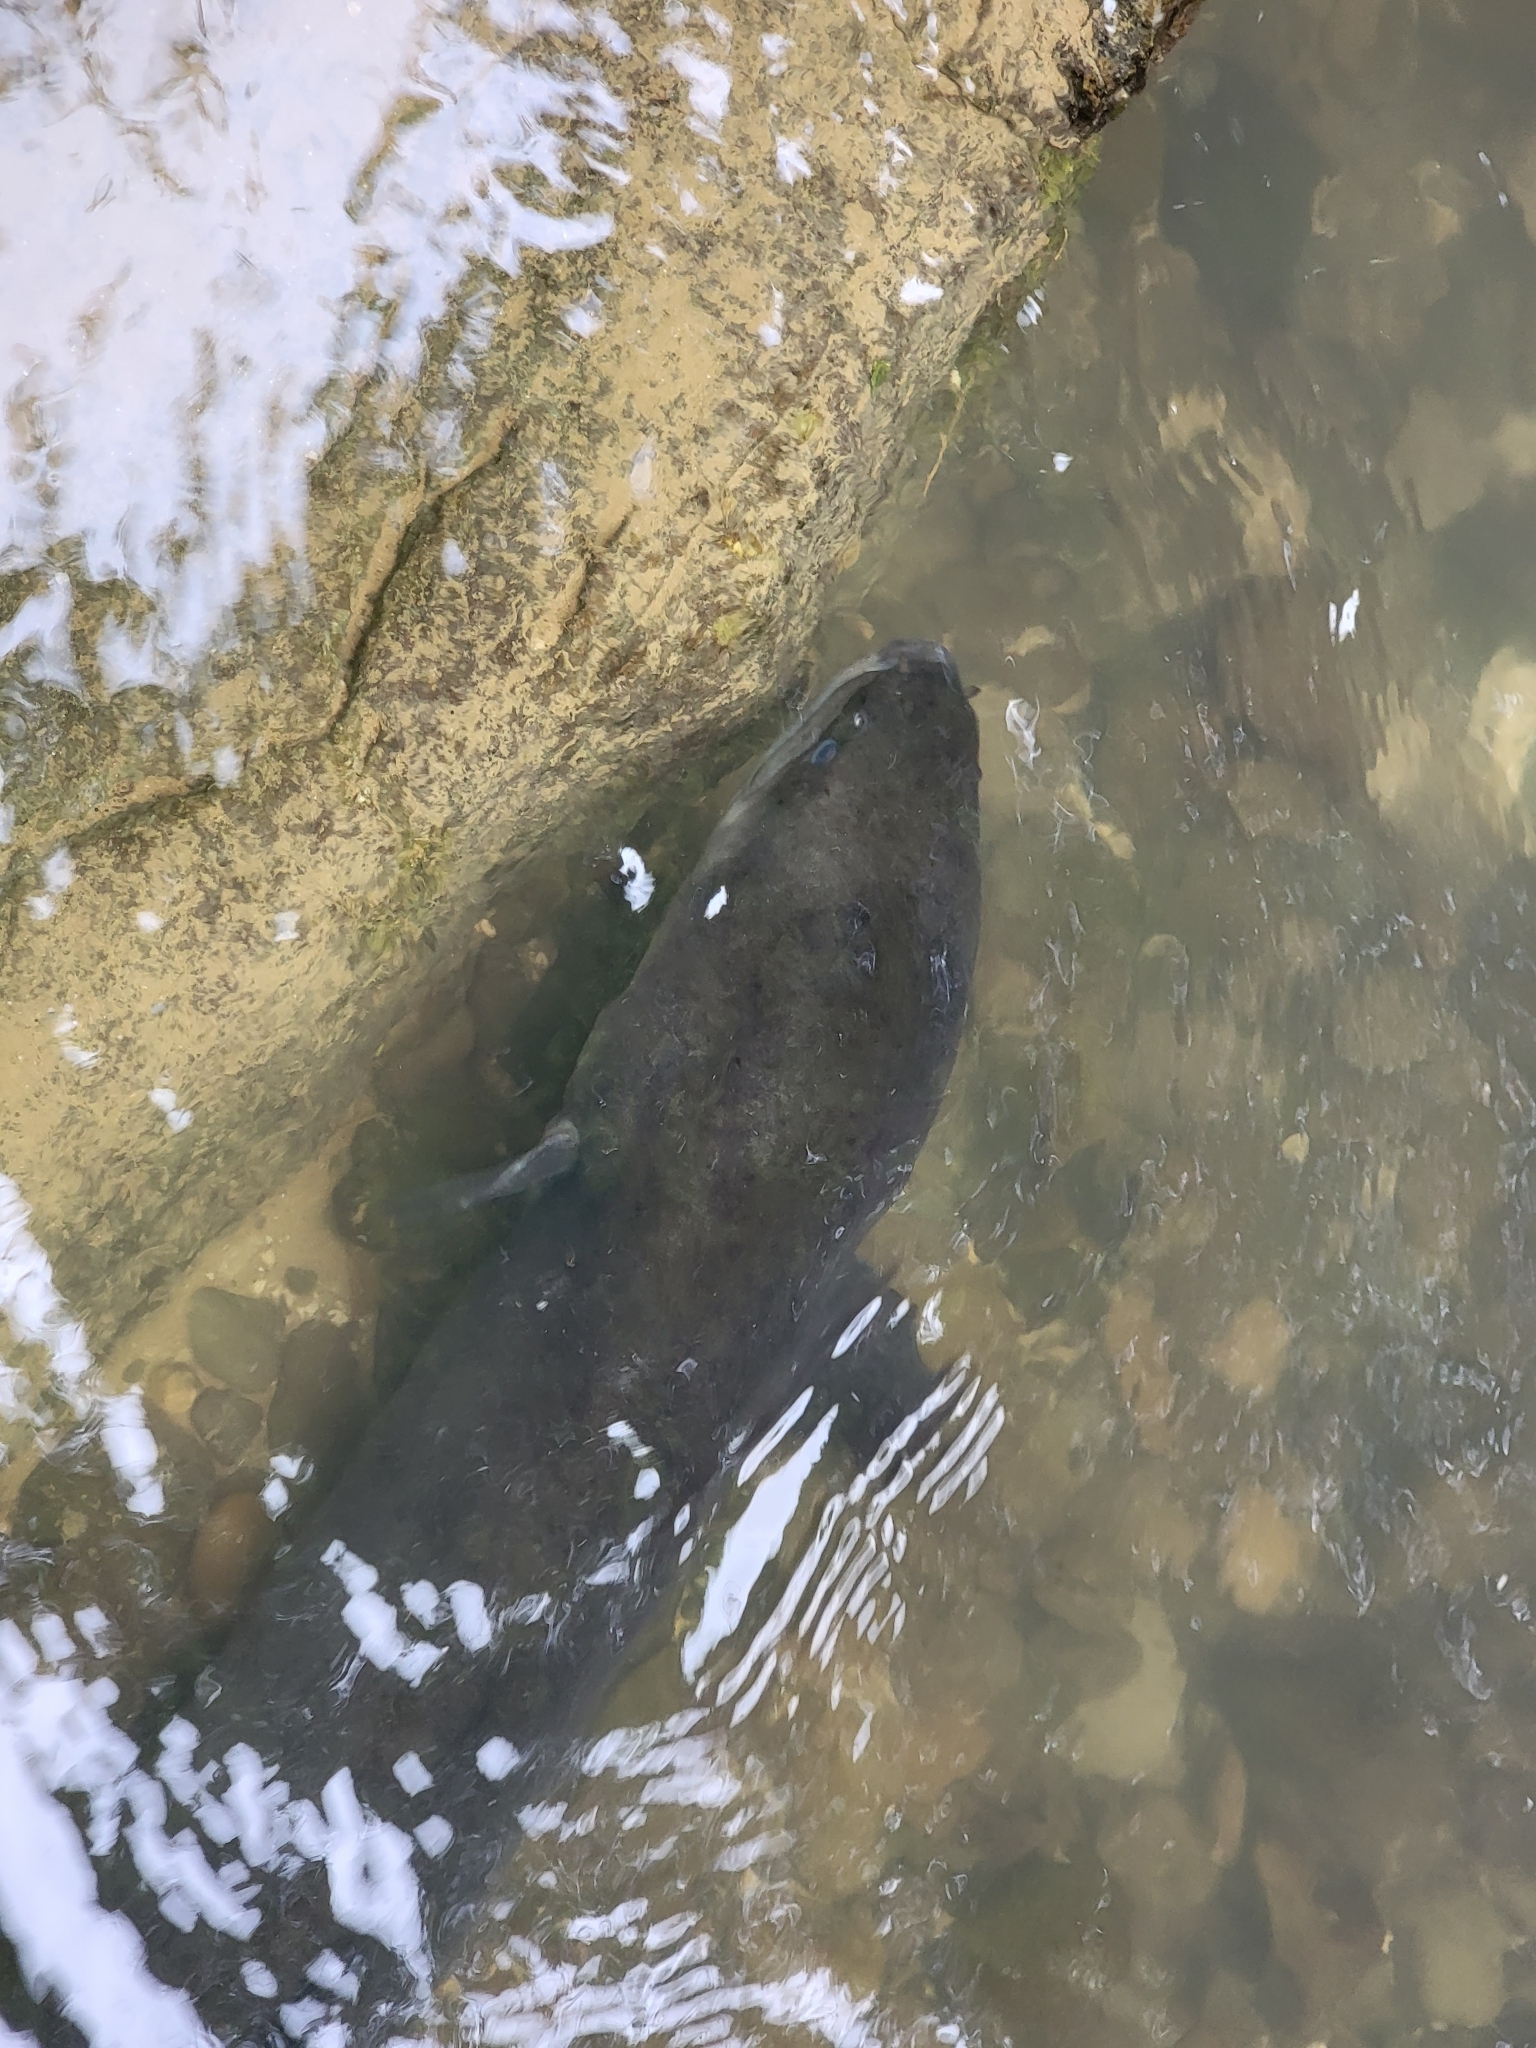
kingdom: Animalia
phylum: Chordata
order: Anguilliformes
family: Anguillidae
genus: Anguilla
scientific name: Anguilla dieffenbachii
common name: New zealand longfin eel
